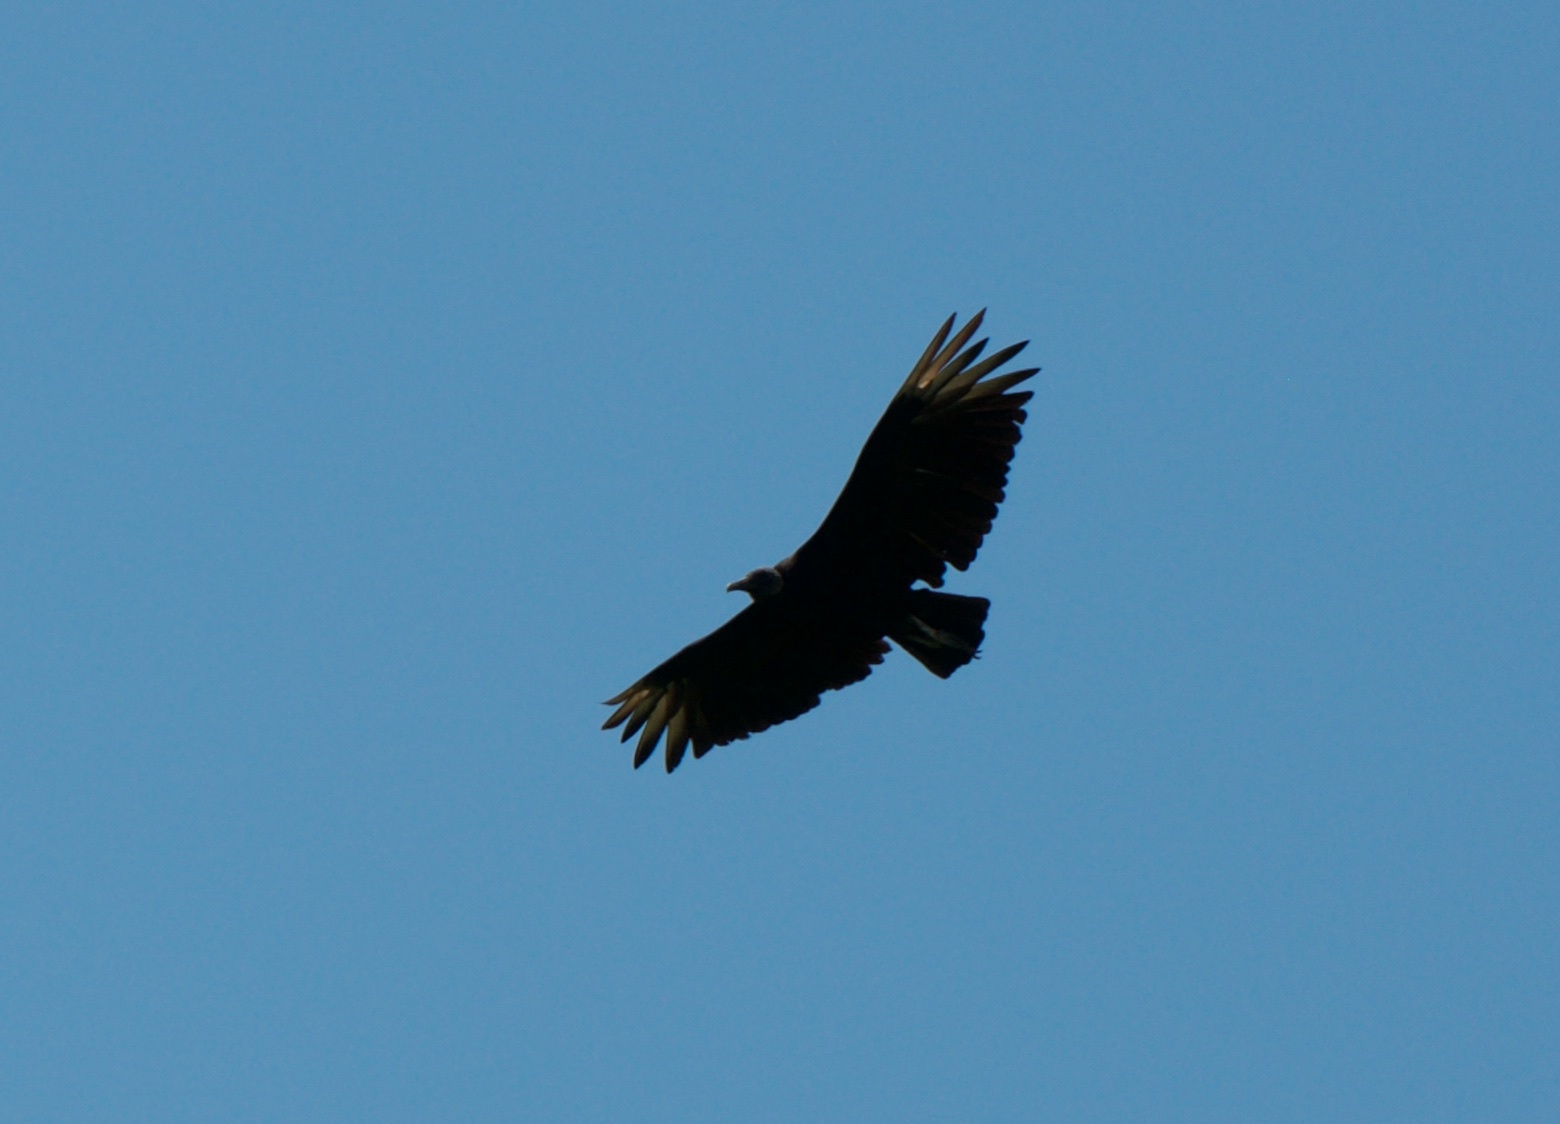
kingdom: Animalia
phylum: Chordata
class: Aves
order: Accipitriformes
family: Cathartidae
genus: Coragyps
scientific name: Coragyps atratus
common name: Black vulture
